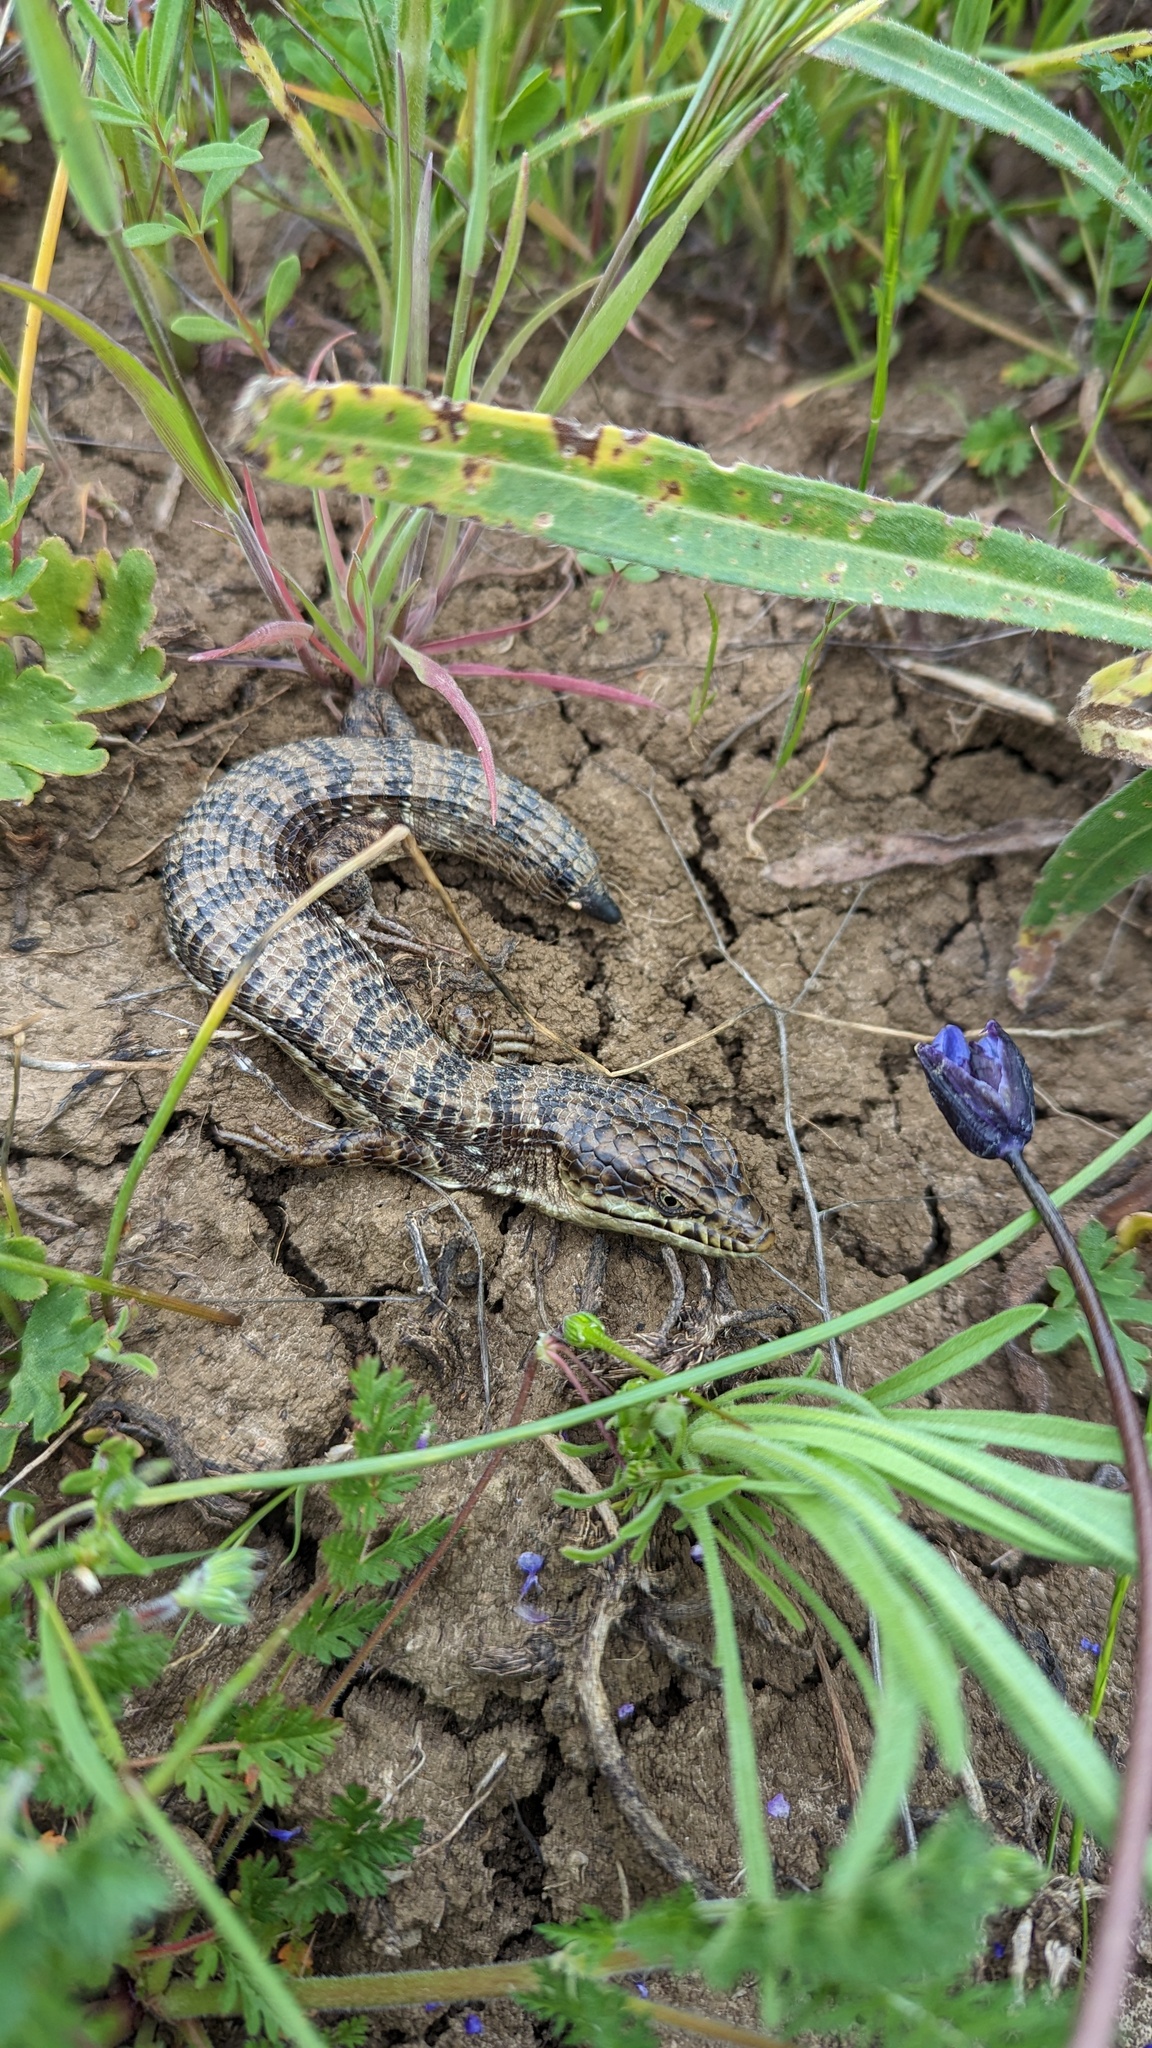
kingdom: Animalia
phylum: Chordata
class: Squamata
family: Anguidae
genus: Elgaria
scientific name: Elgaria multicarinata
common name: Southern alligator lizard
